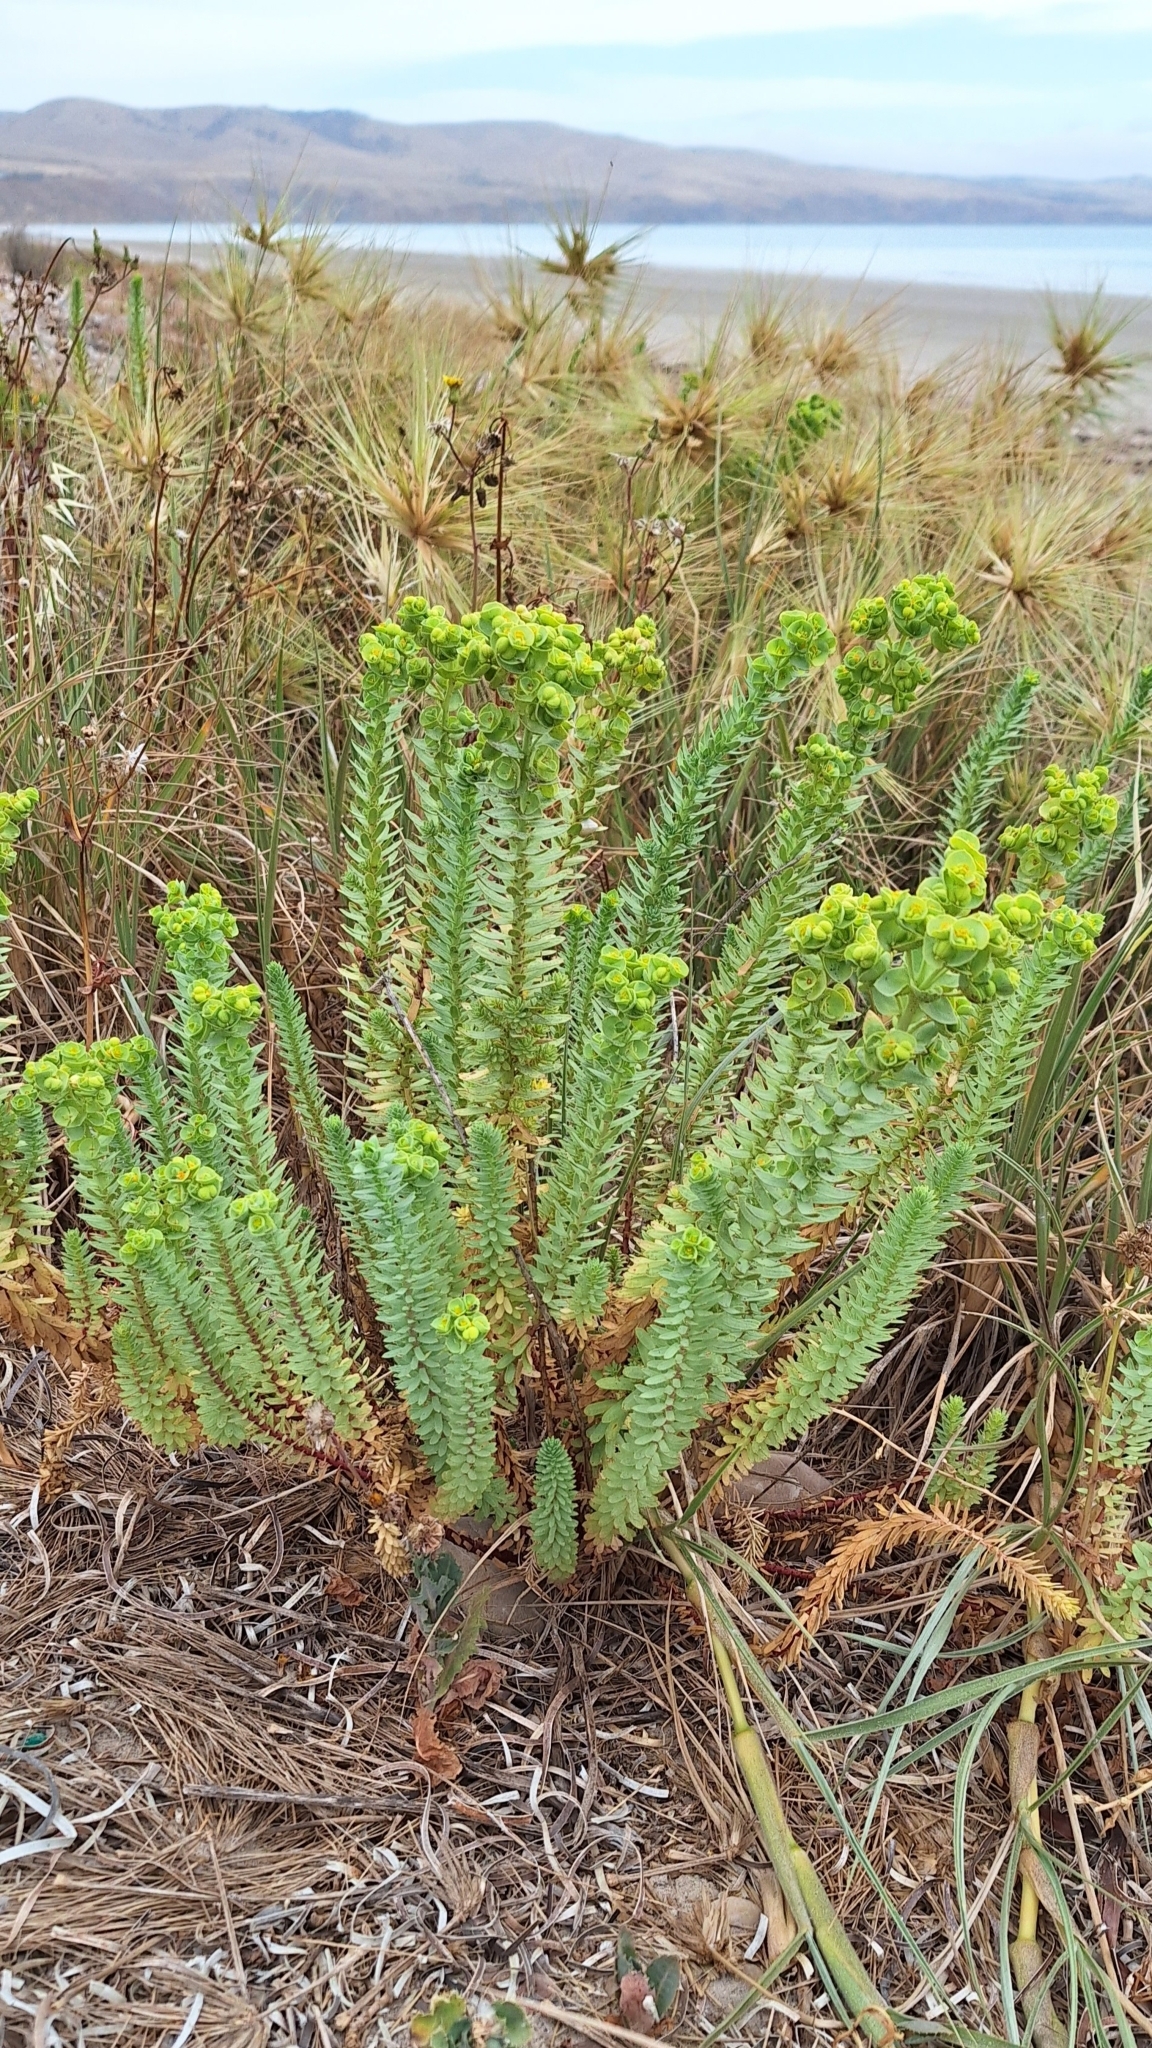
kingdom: Plantae
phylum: Tracheophyta
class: Magnoliopsida
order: Malpighiales
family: Euphorbiaceae
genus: Euphorbia
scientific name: Euphorbia paralias
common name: Sea spurge
